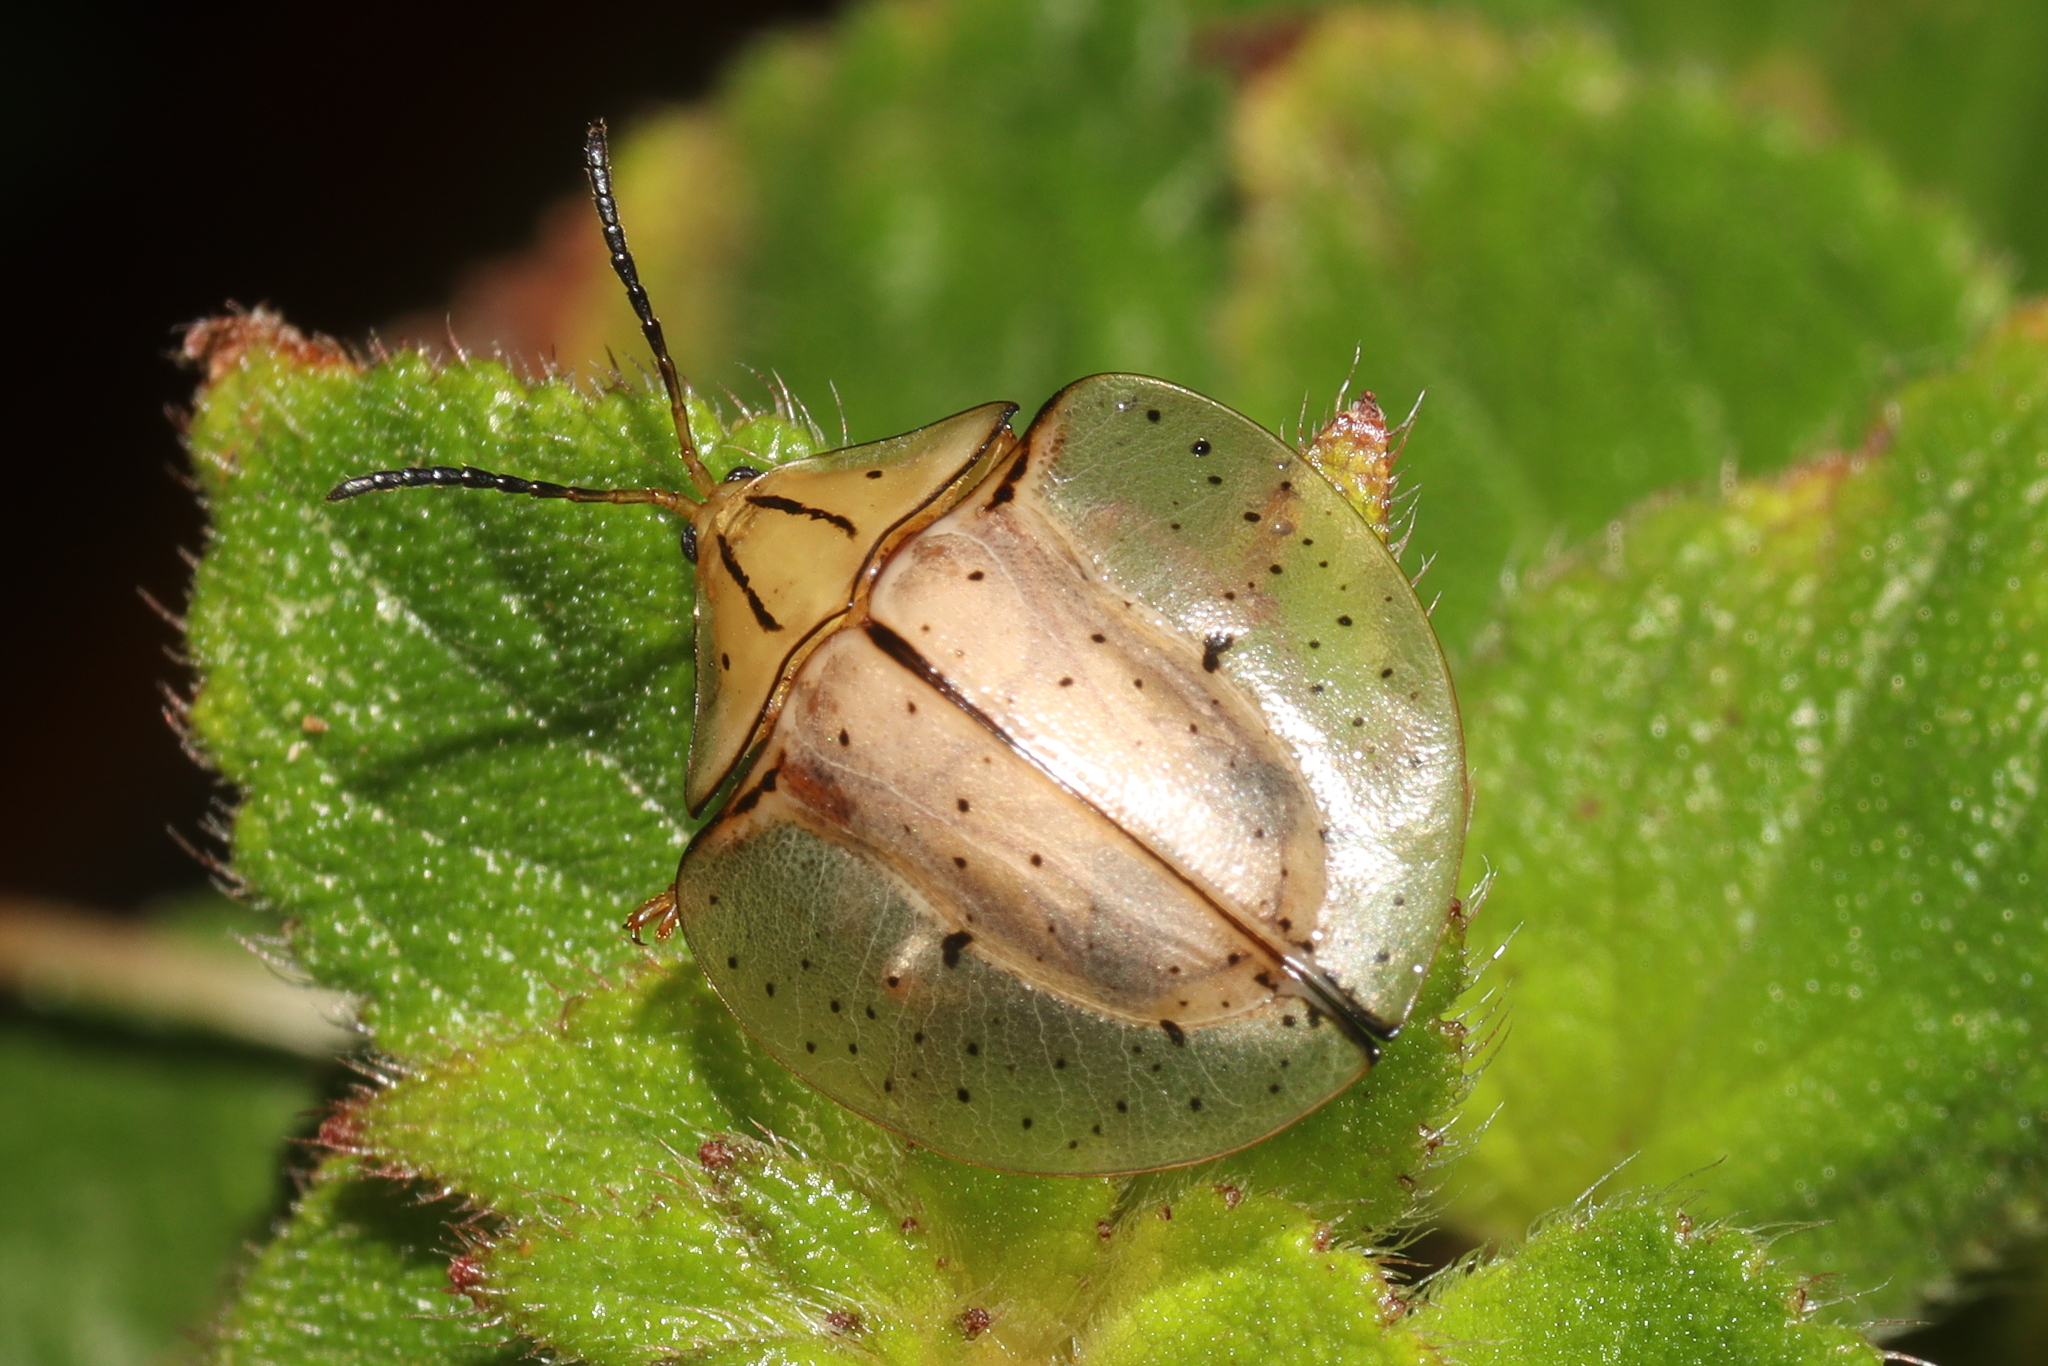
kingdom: Animalia
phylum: Arthropoda
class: Insecta
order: Coleoptera
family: Chrysomelidae
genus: Acromis
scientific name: Acromis sparsa
